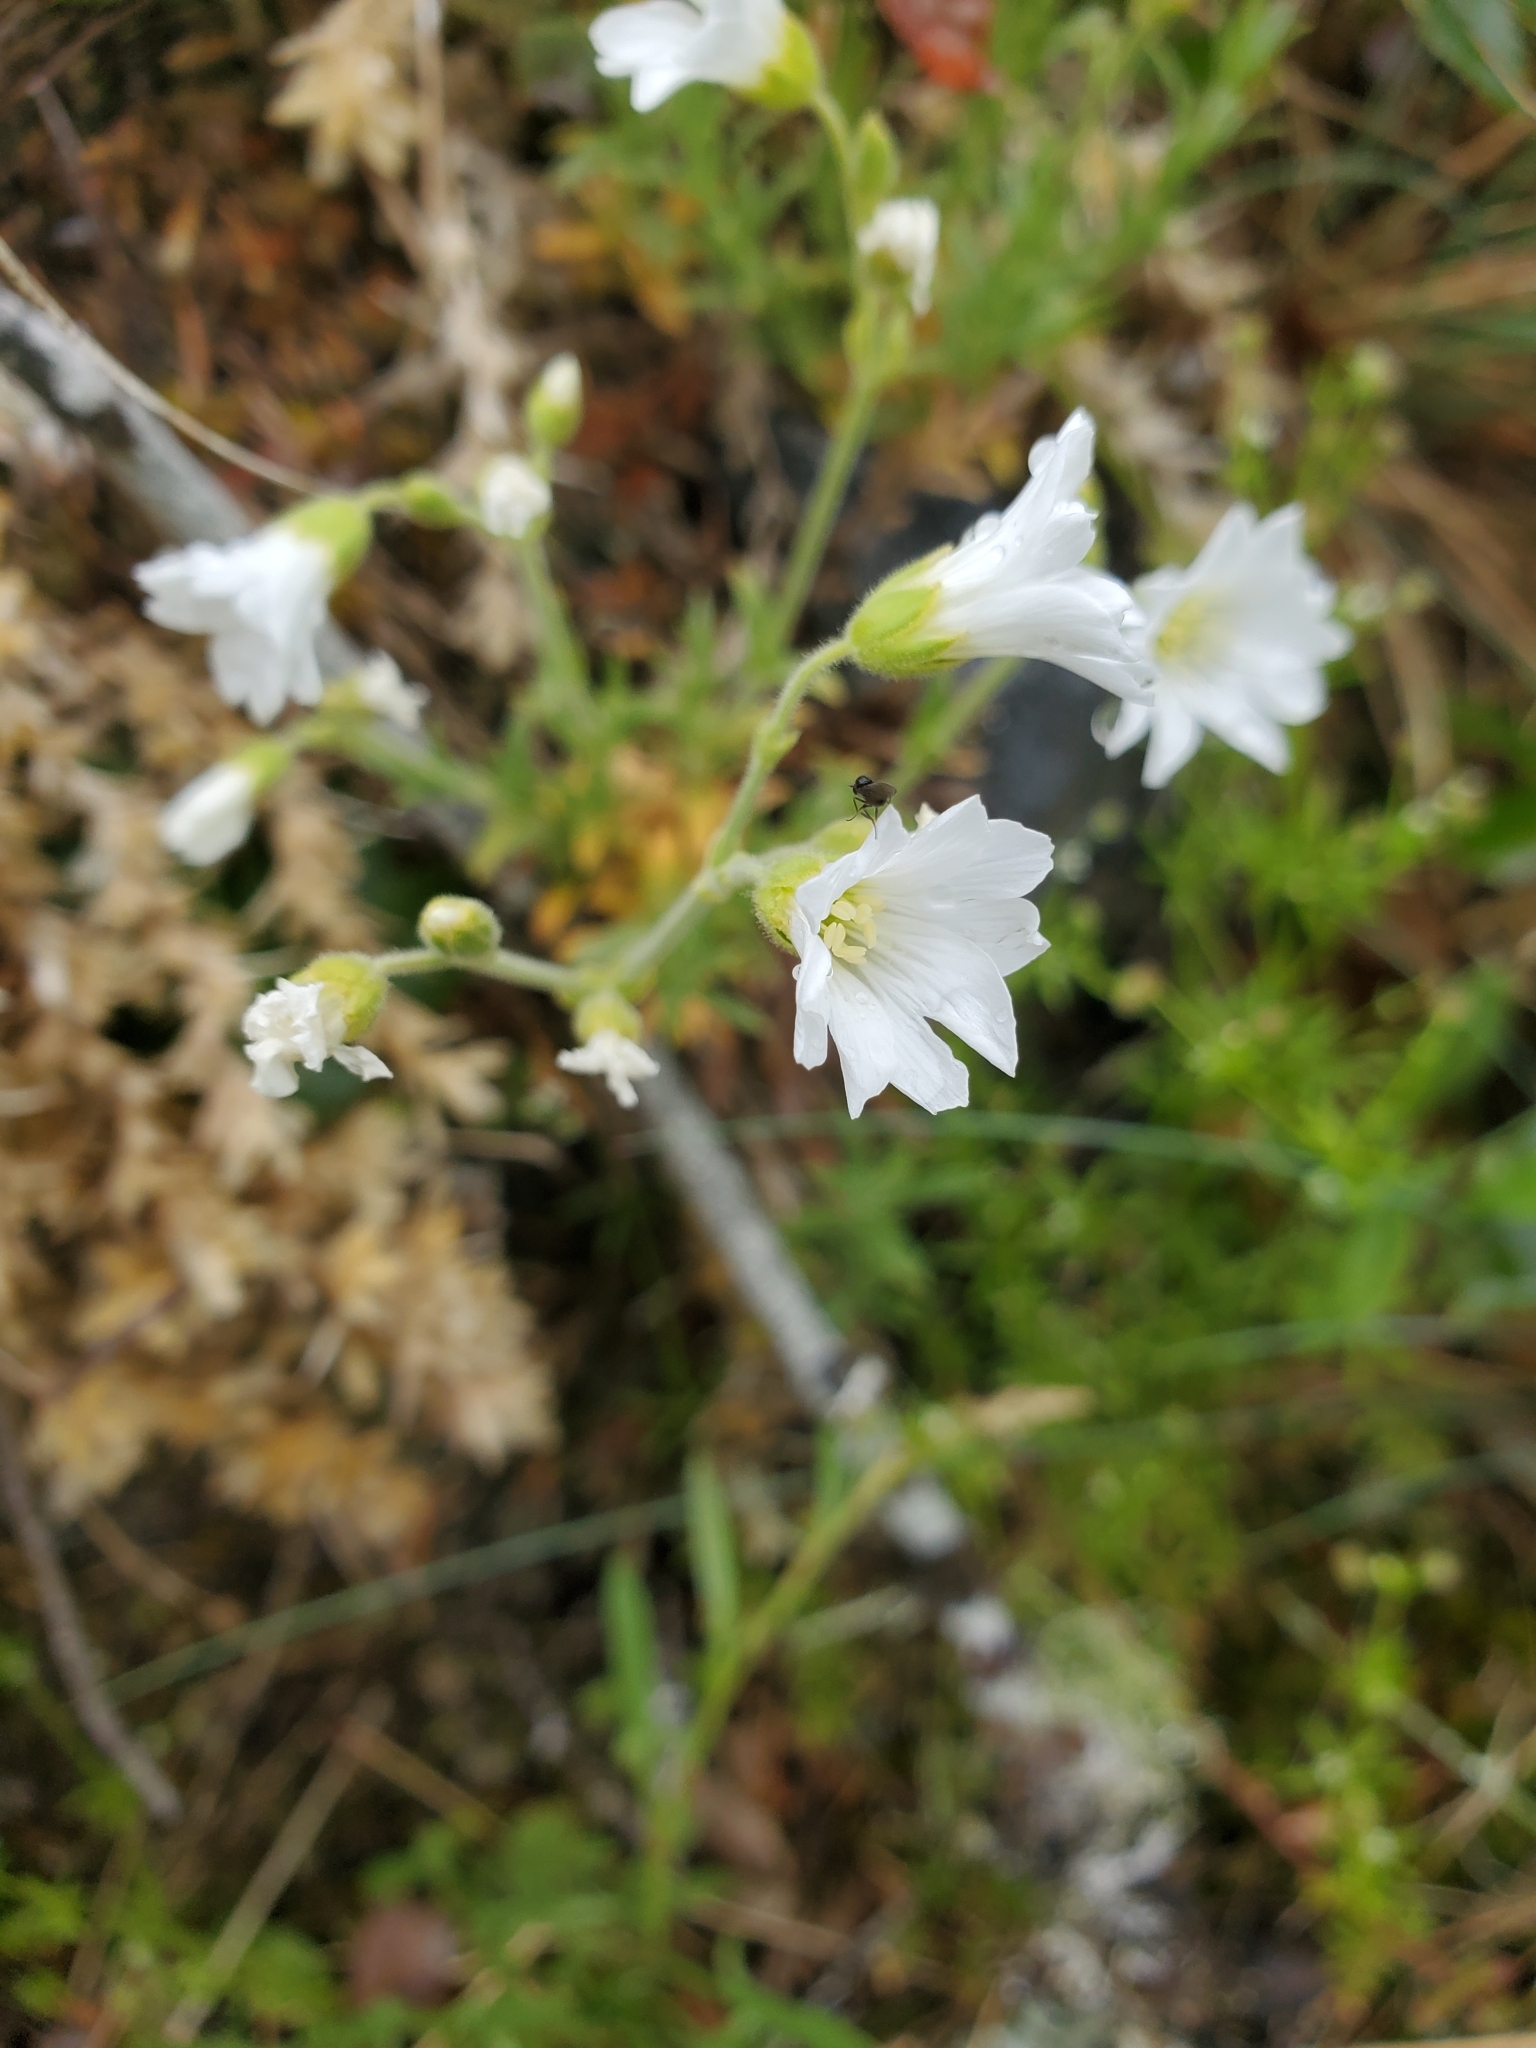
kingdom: Plantae
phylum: Tracheophyta
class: Magnoliopsida
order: Caryophyllales
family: Caryophyllaceae
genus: Cerastium
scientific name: Cerastium arvense
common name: Field mouse-ear
